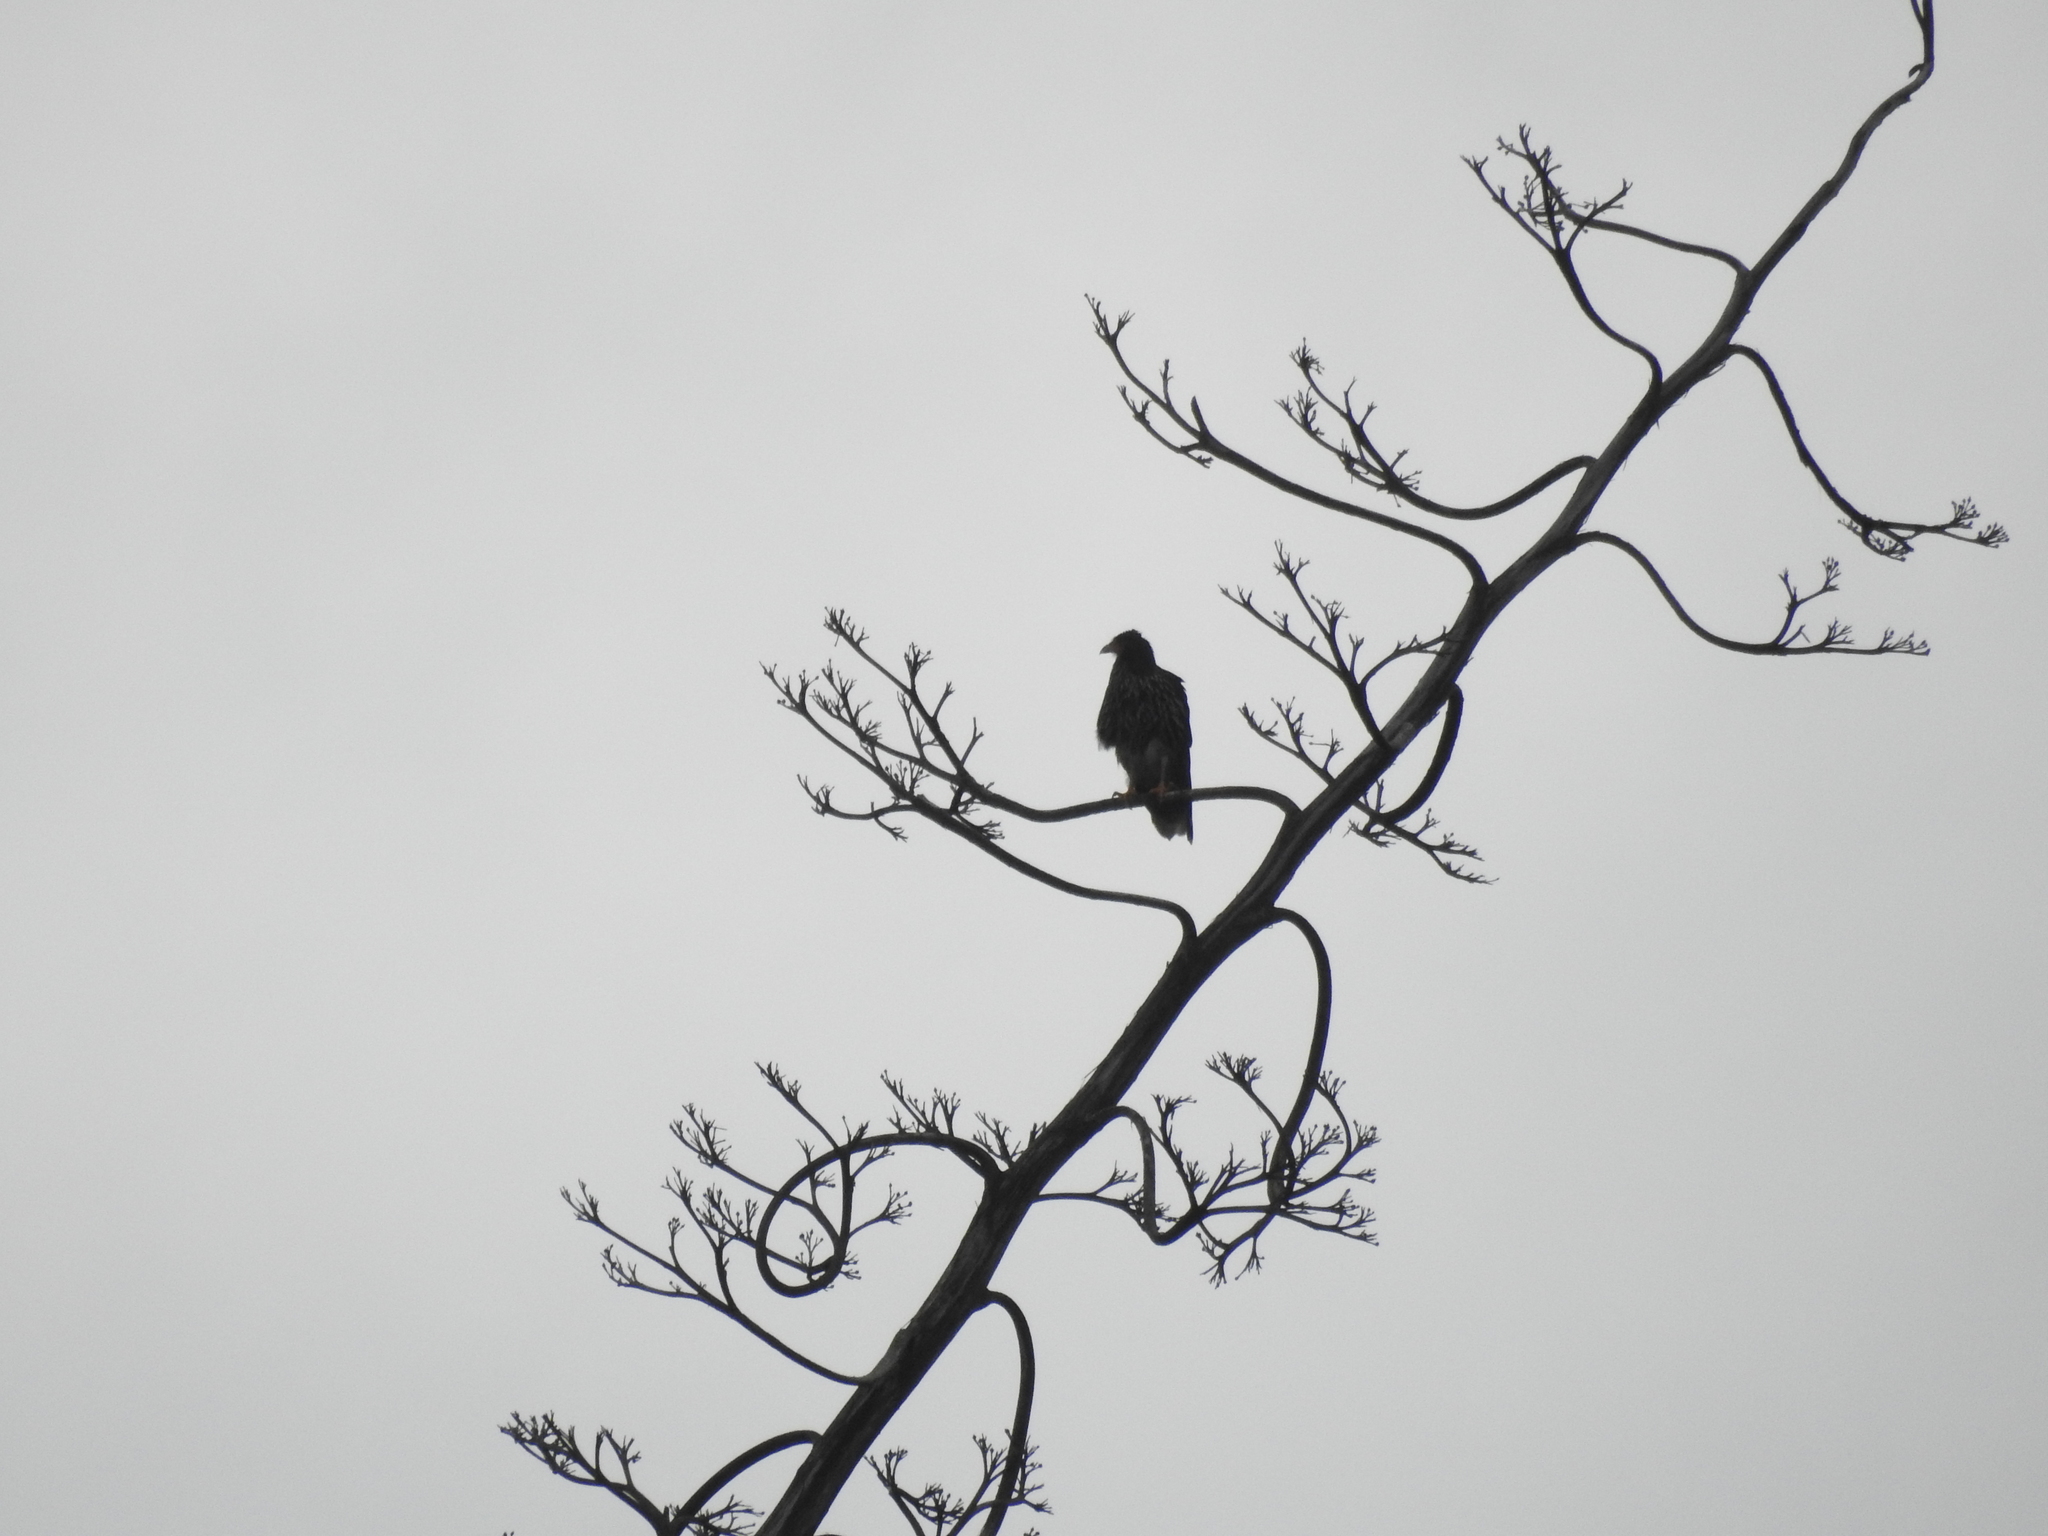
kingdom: Animalia
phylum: Chordata
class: Aves
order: Falconiformes
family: Falconidae
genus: Daptrius
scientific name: Daptrius
